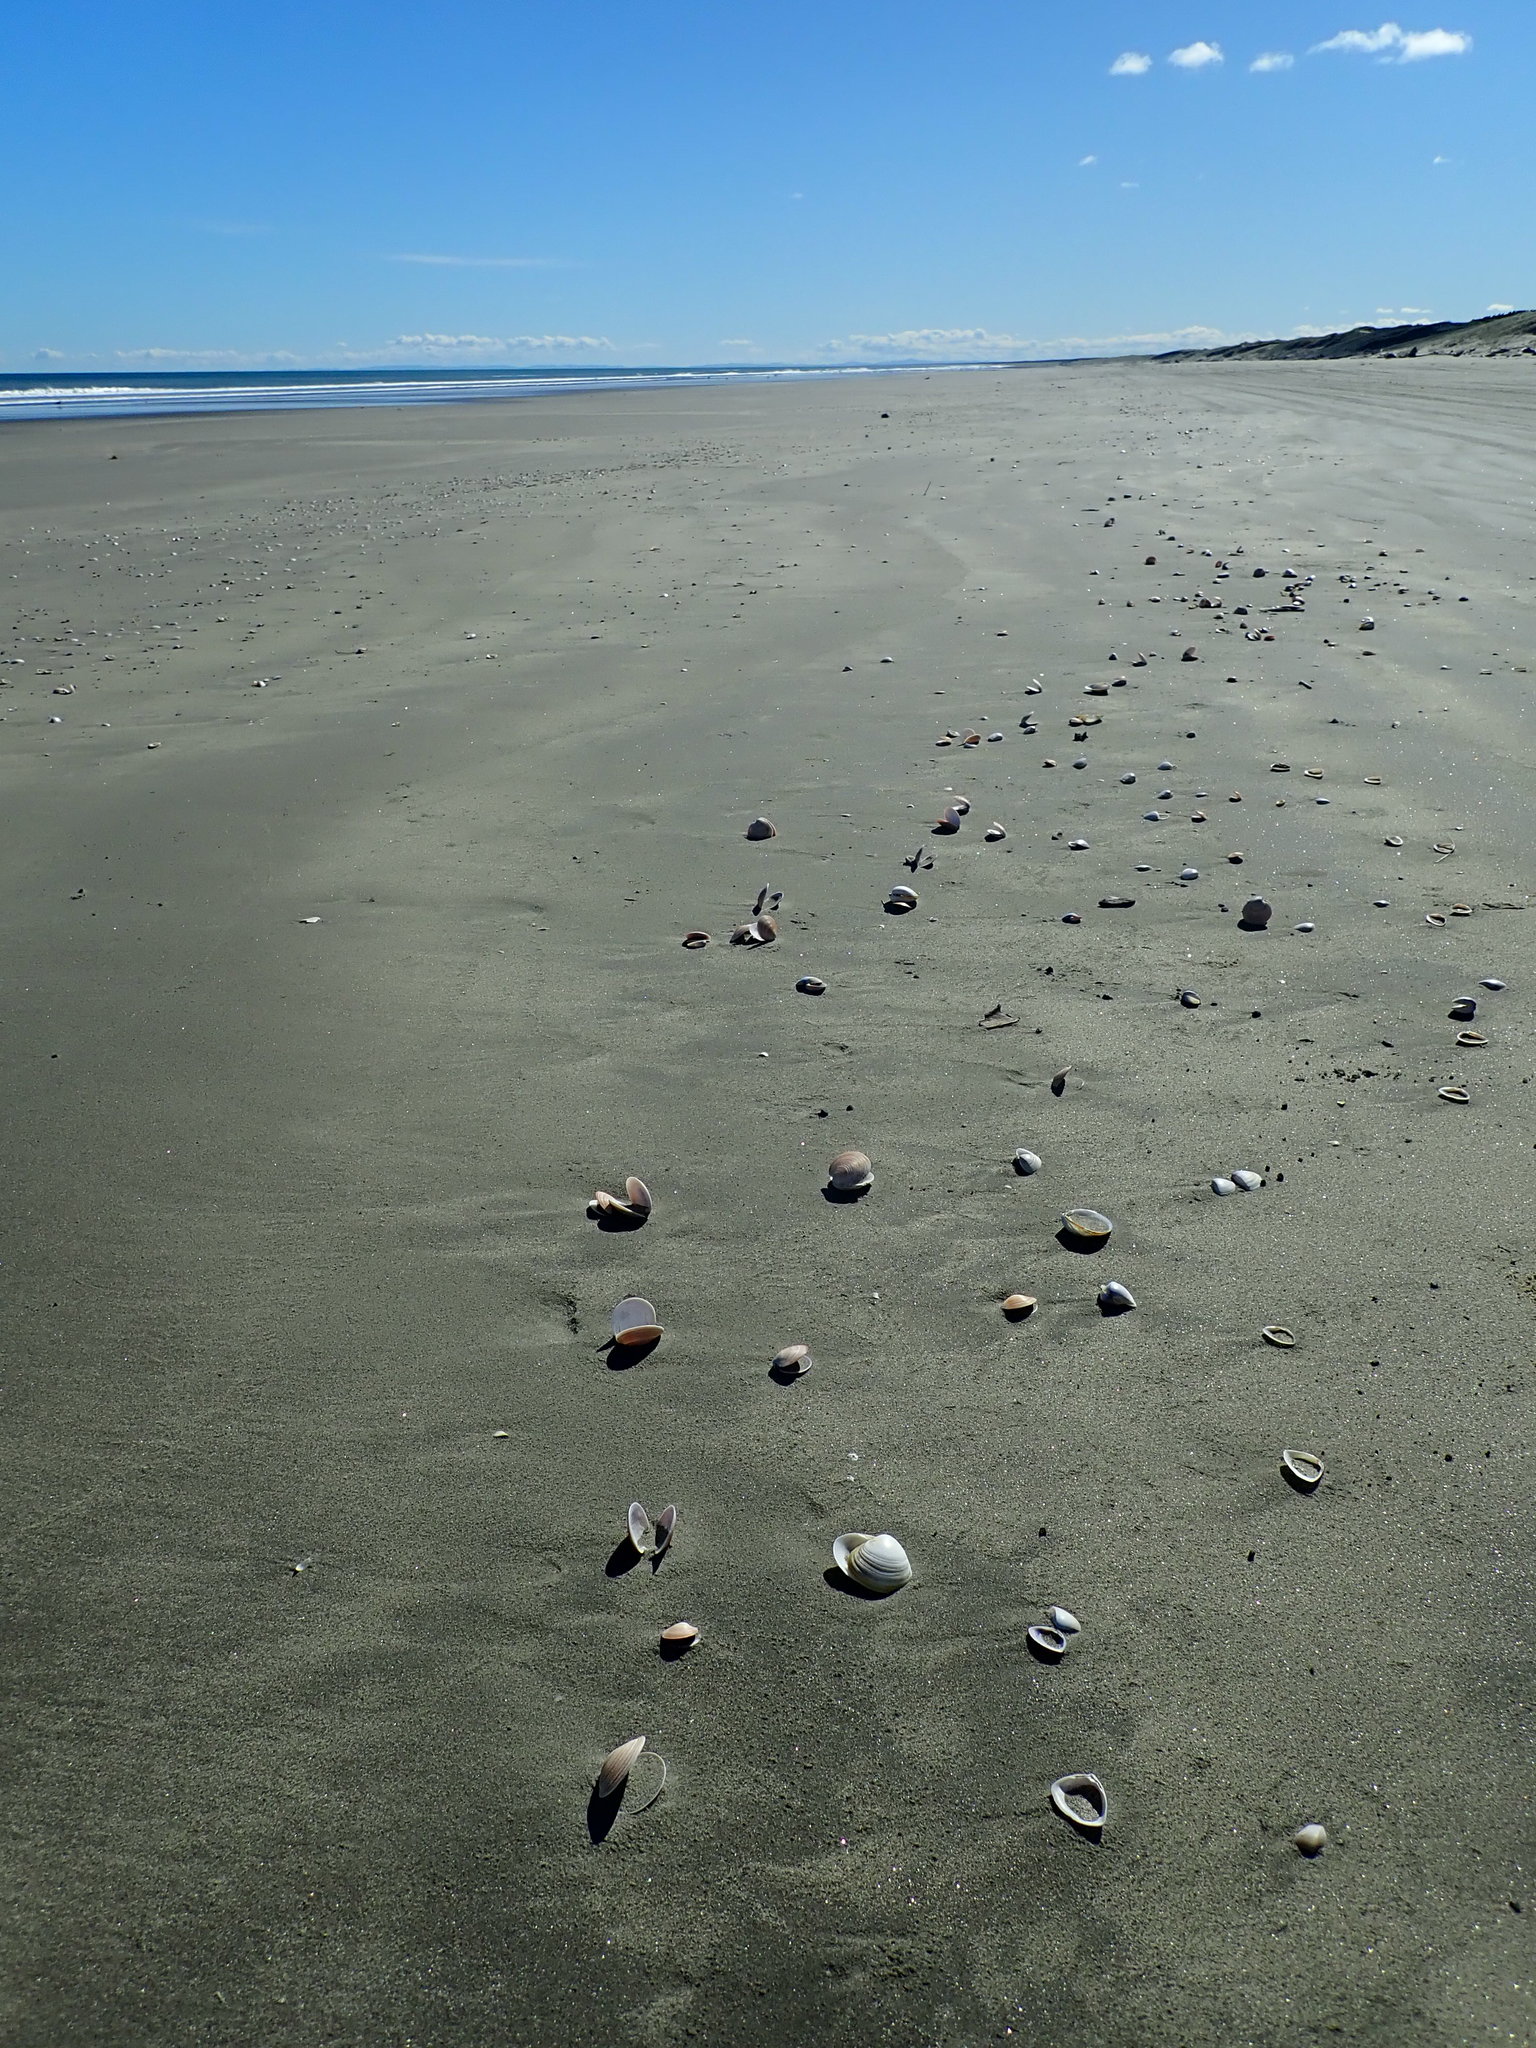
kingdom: Animalia
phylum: Mollusca
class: Bivalvia
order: Venerida
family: Veneridae
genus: Dosinia
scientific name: Dosinia anus
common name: Old-woman dosinia
